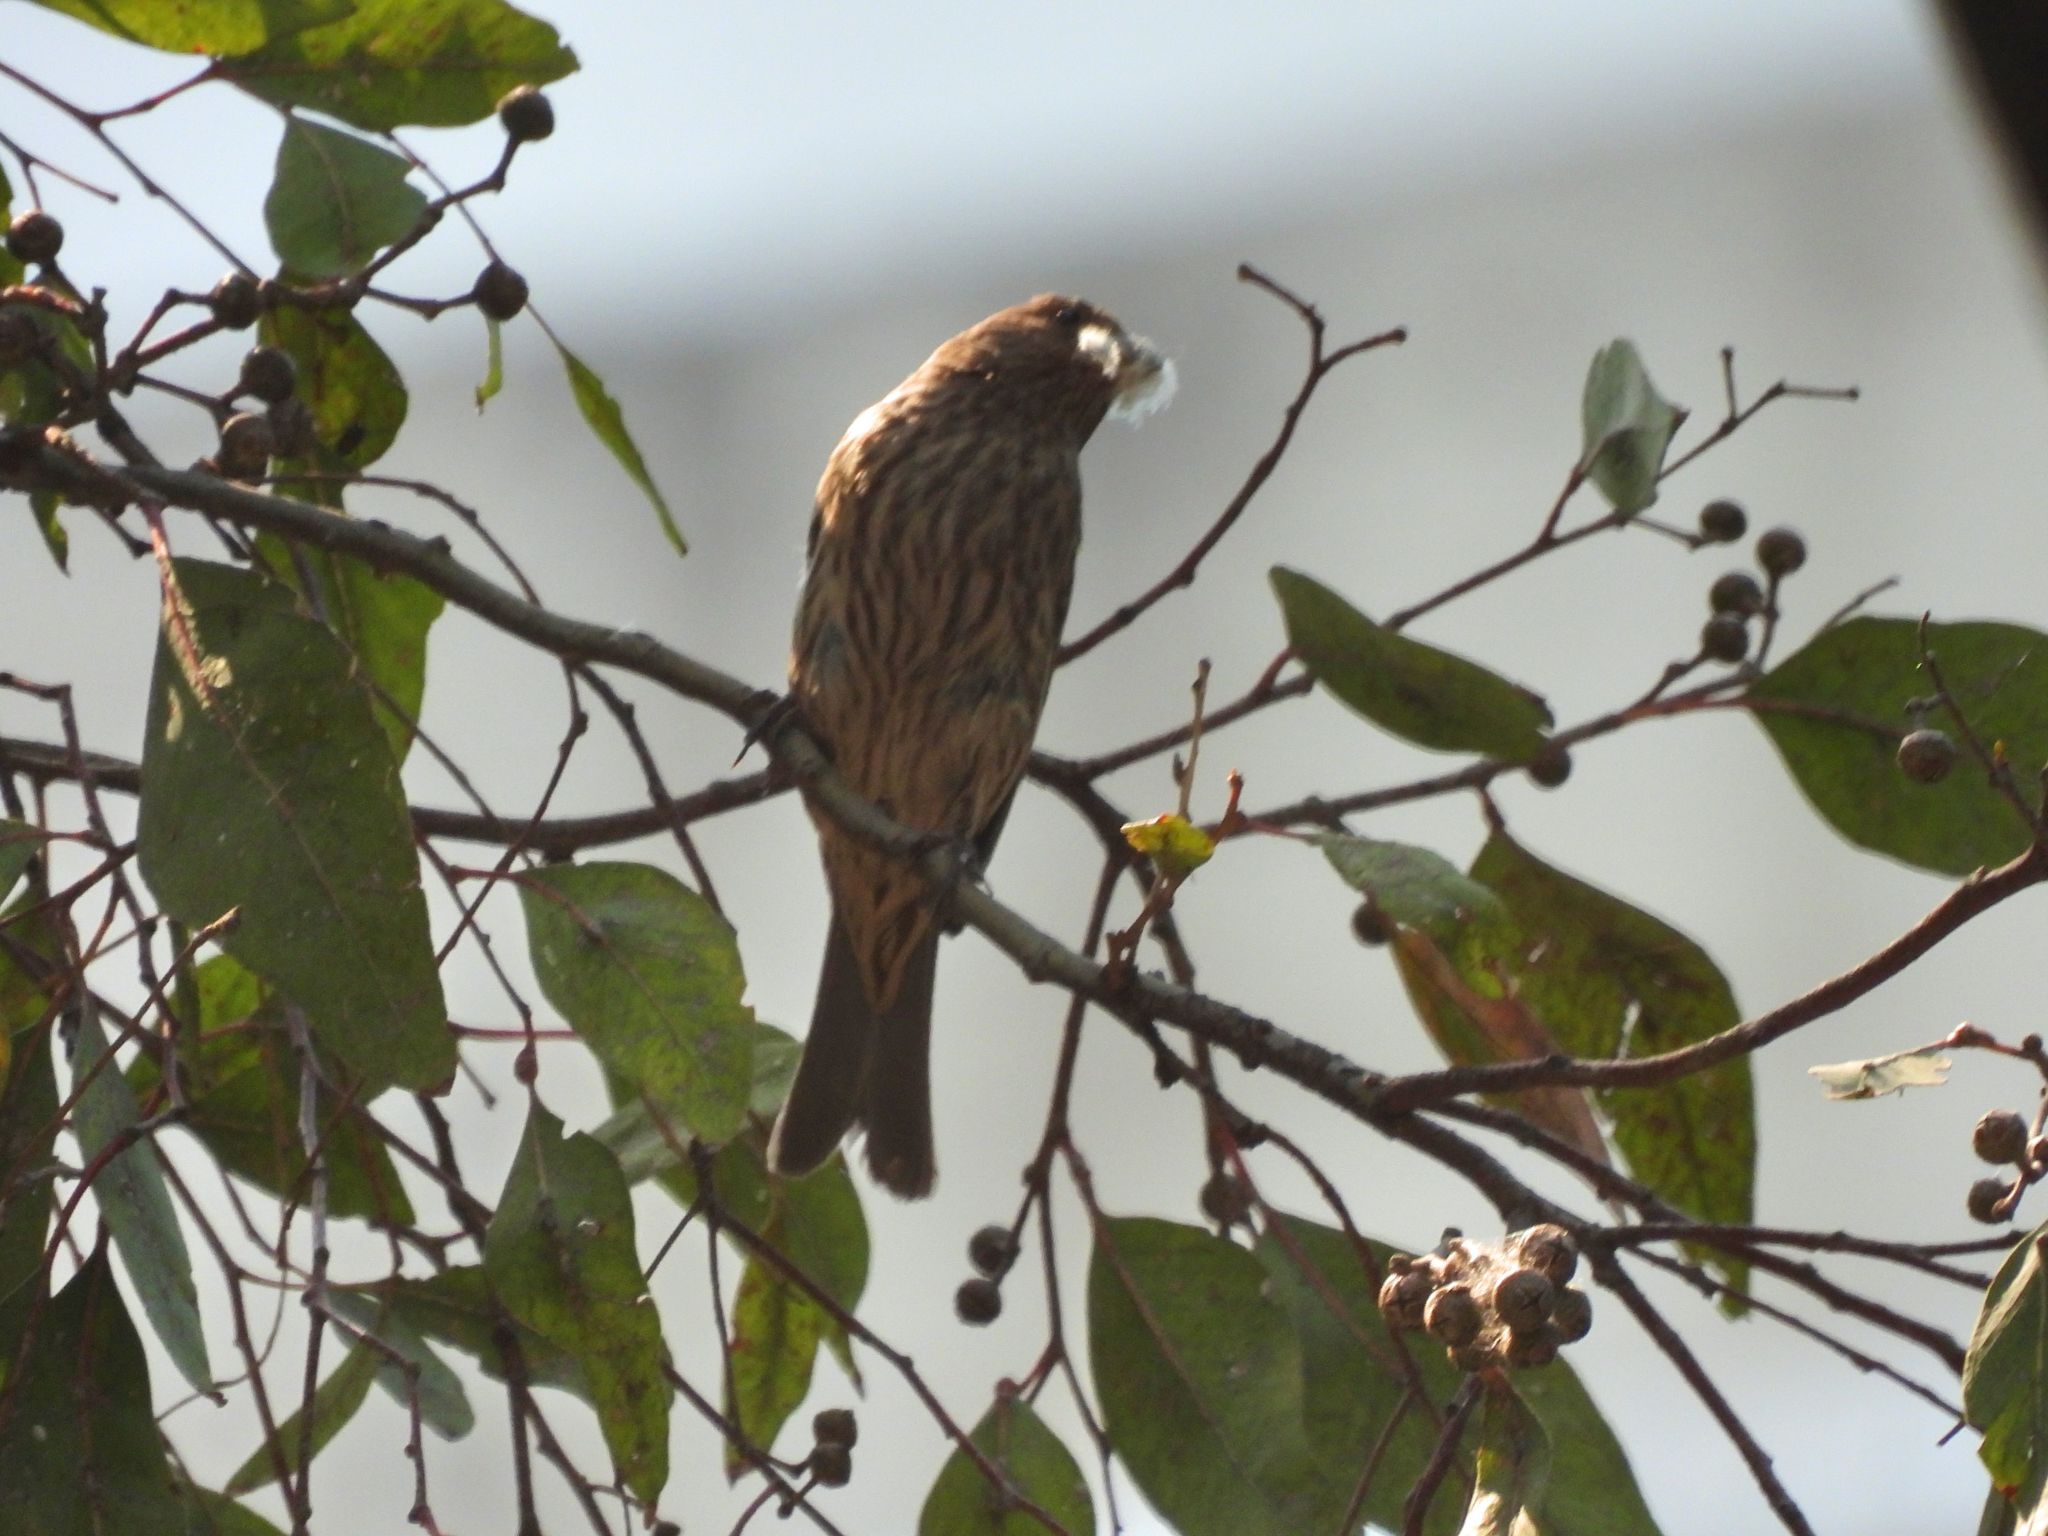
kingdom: Animalia
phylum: Chordata
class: Aves
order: Passeriformes
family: Fringillidae
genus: Haemorhous
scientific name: Haemorhous mexicanus
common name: House finch
